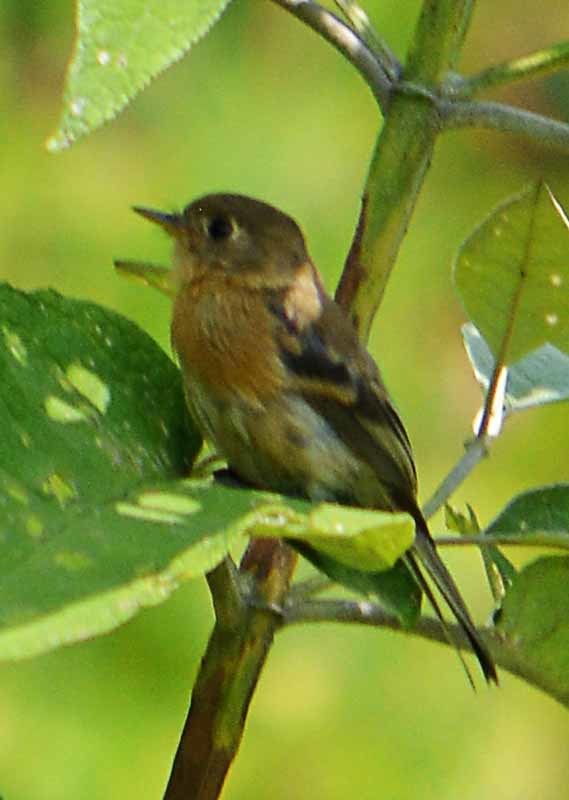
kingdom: Animalia
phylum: Chordata
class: Aves
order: Passeriformes
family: Tyrannidae
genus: Empidonax
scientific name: Empidonax fulvifrons
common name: Buff-breasted flycatcher
